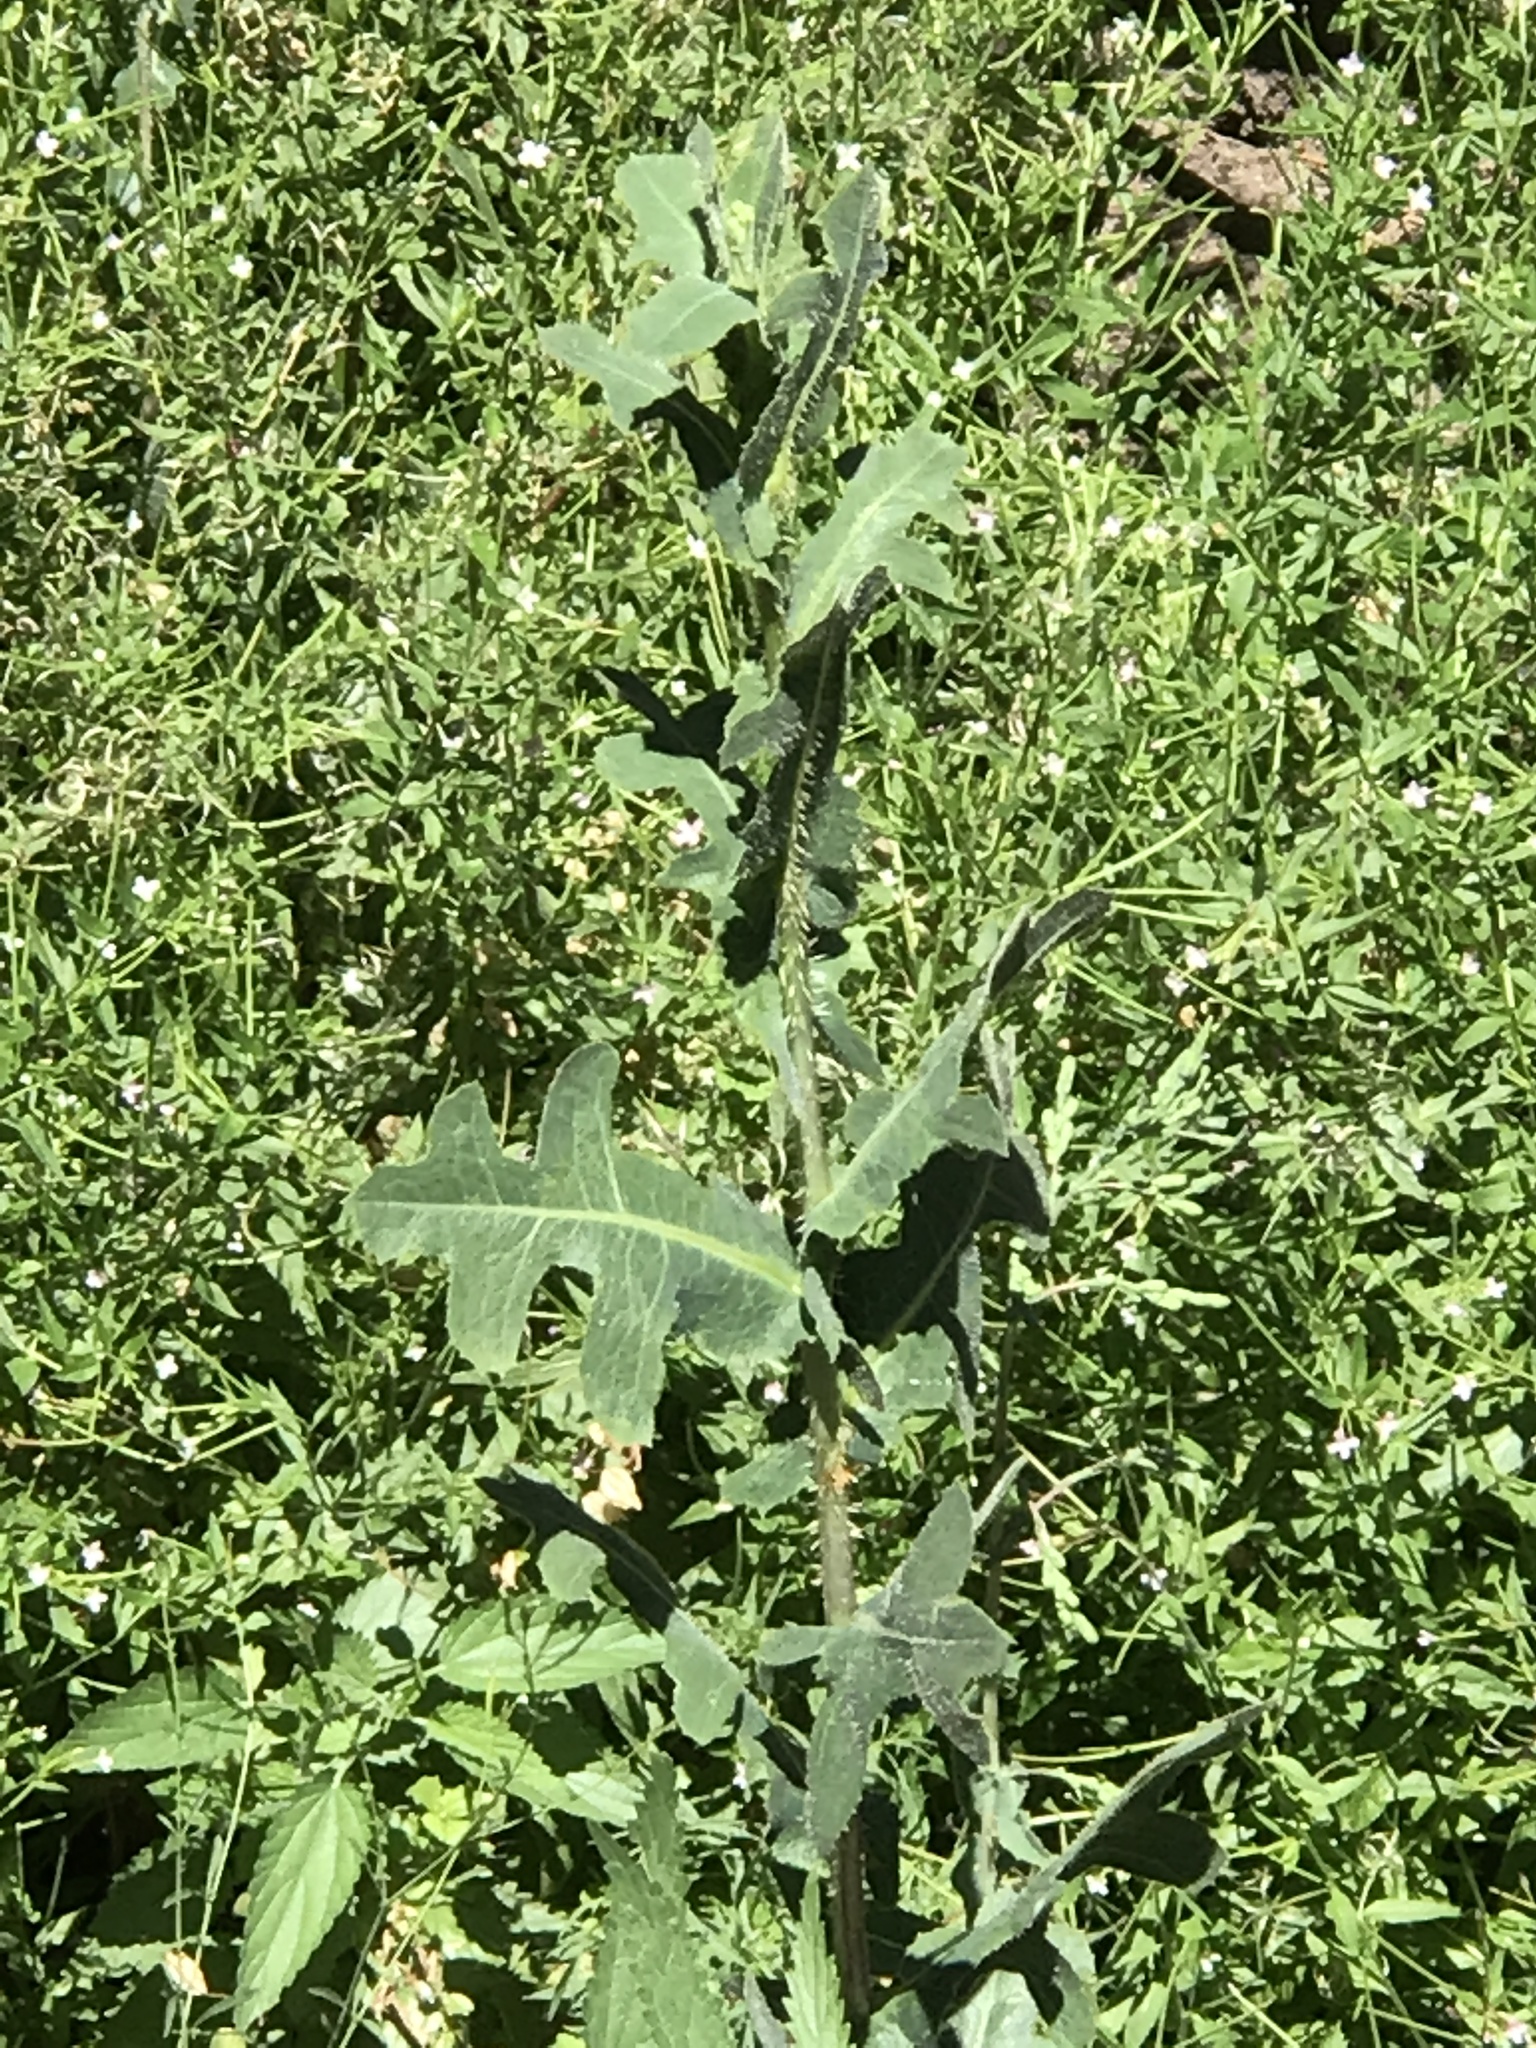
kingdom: Plantae
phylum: Tracheophyta
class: Magnoliopsida
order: Asterales
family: Asteraceae
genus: Lactuca
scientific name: Lactuca serriola
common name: Prickly lettuce
